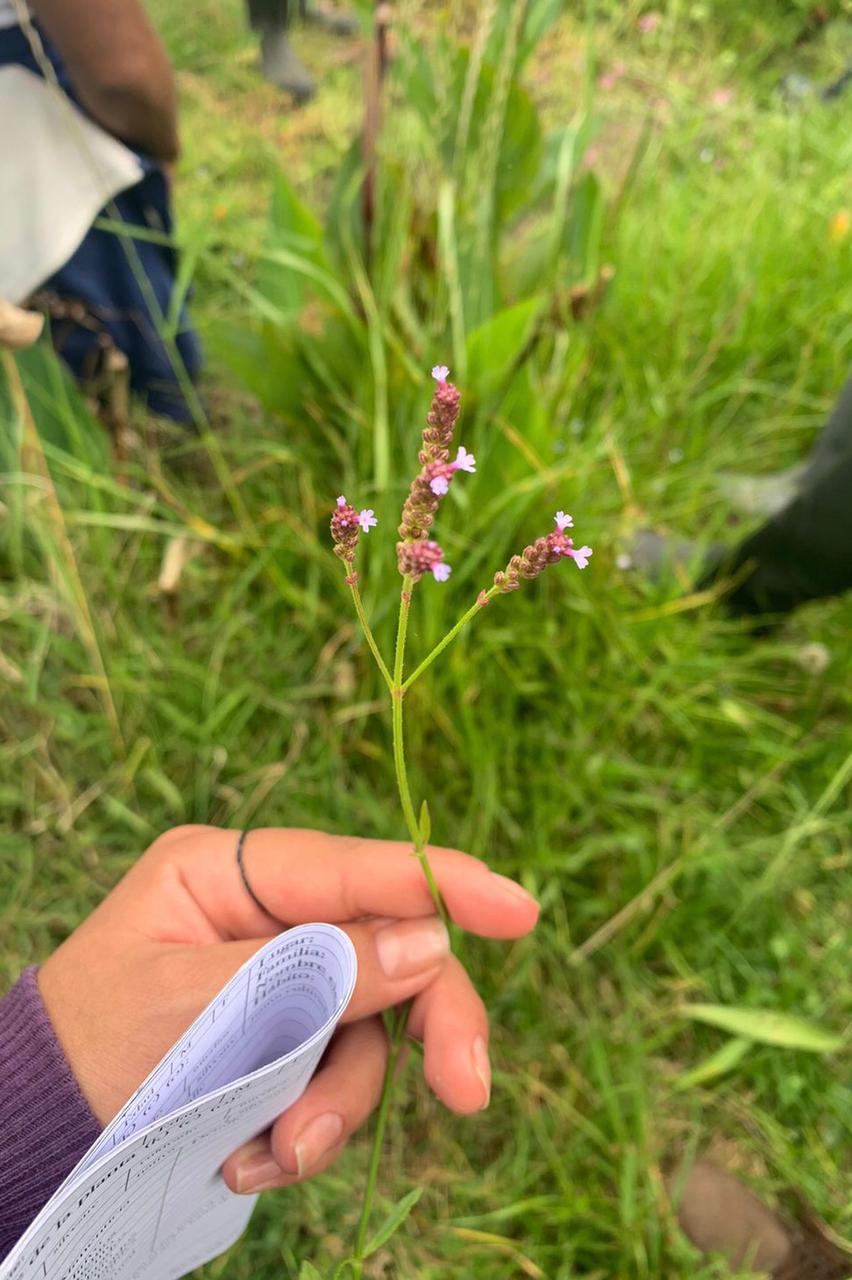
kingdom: Plantae
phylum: Tracheophyta
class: Magnoliopsida
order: Lamiales
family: Verbenaceae
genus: Verbena
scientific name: Verbena litoralis
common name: Seashore vervain
